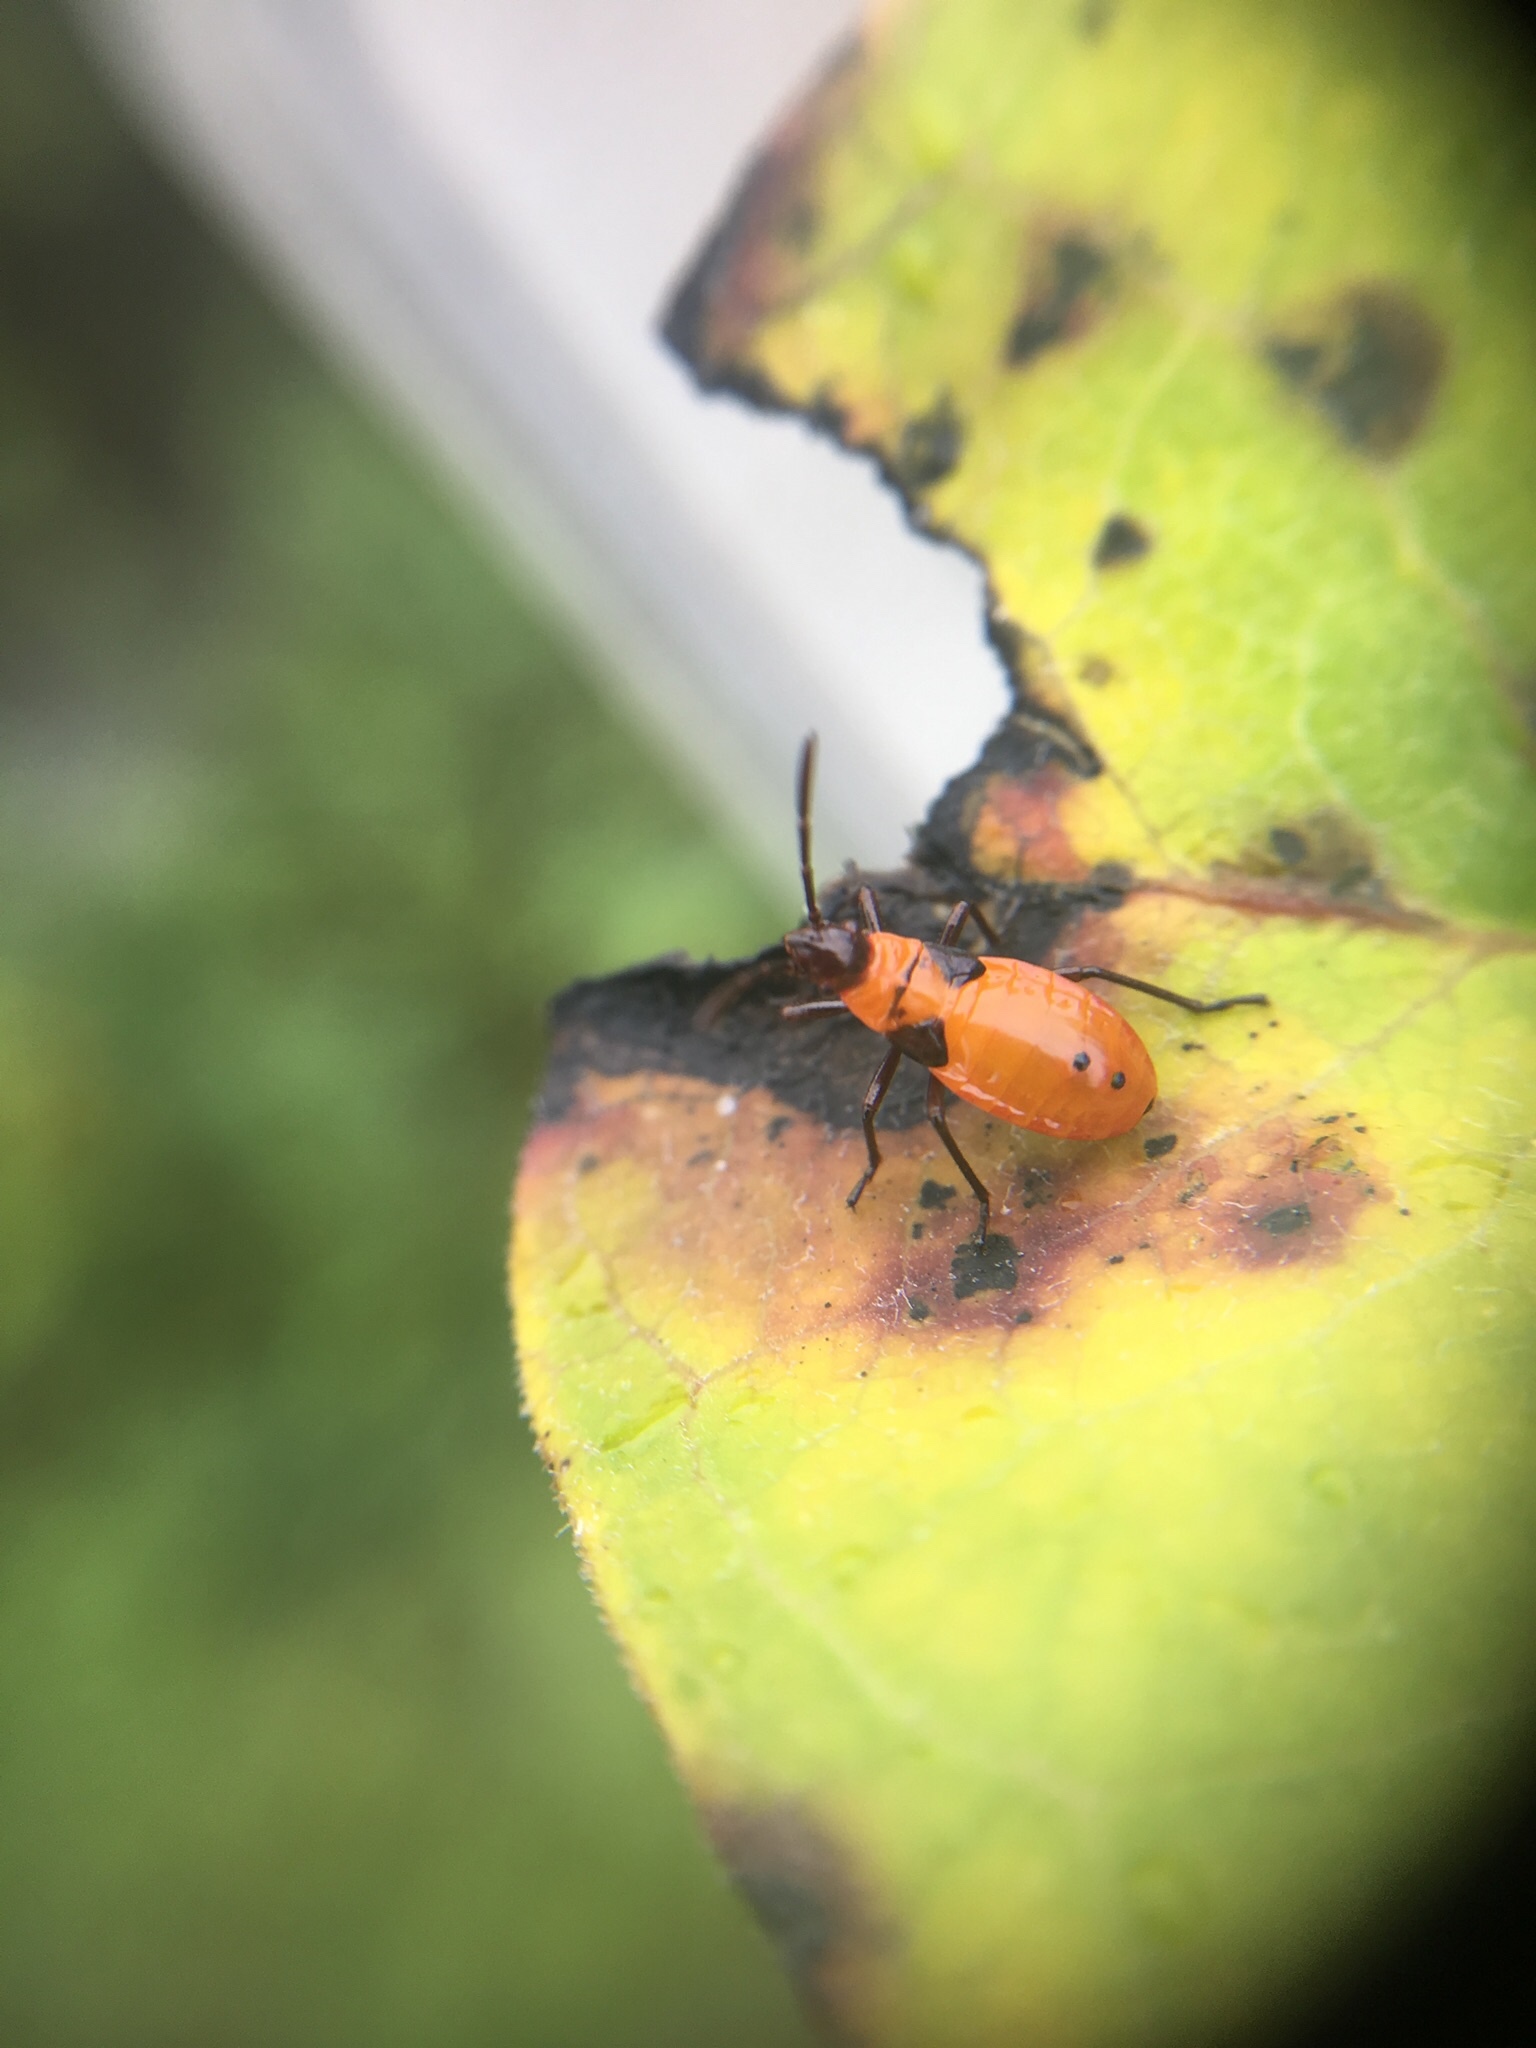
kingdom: Animalia
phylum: Arthropoda
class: Insecta
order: Hemiptera
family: Lygaeidae
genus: Oncopeltus
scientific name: Oncopeltus fasciatus
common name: Large milkweed bug
